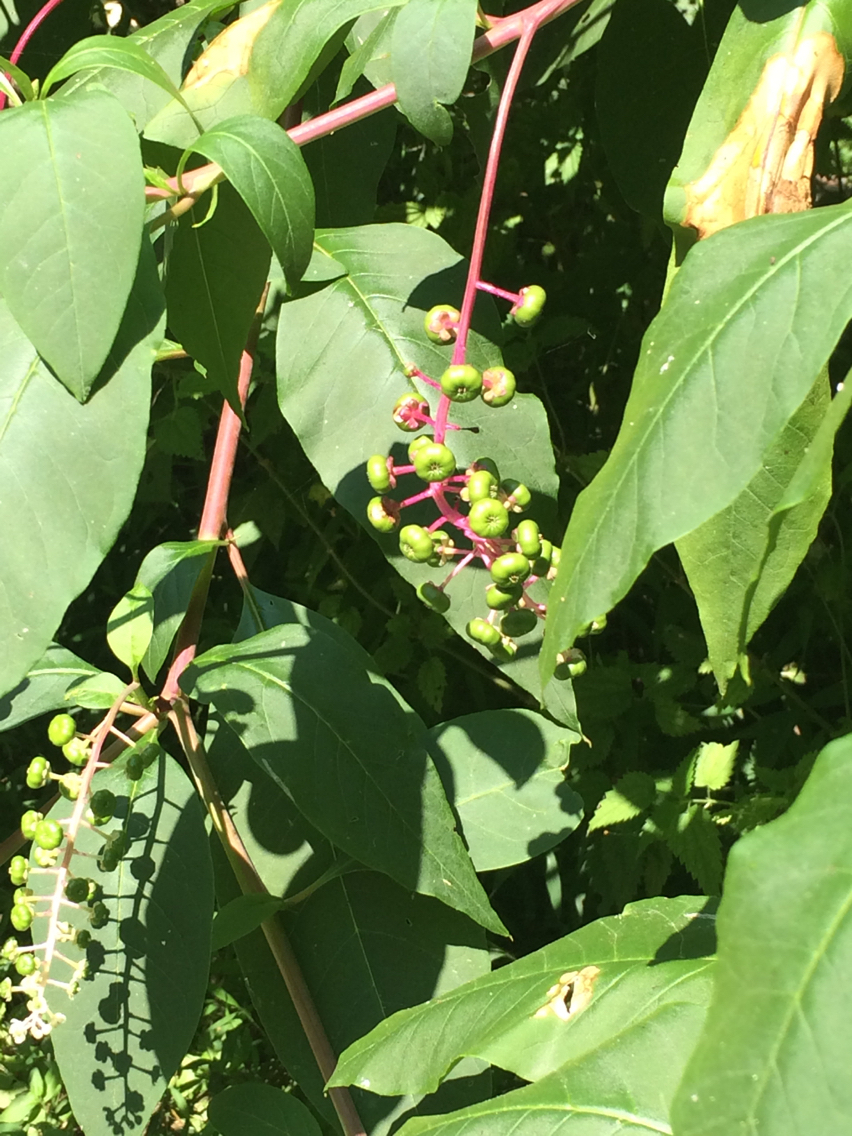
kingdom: Plantae
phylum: Tracheophyta
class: Magnoliopsida
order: Caryophyllales
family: Phytolaccaceae
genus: Phytolacca
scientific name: Phytolacca americana
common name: American pokeweed
